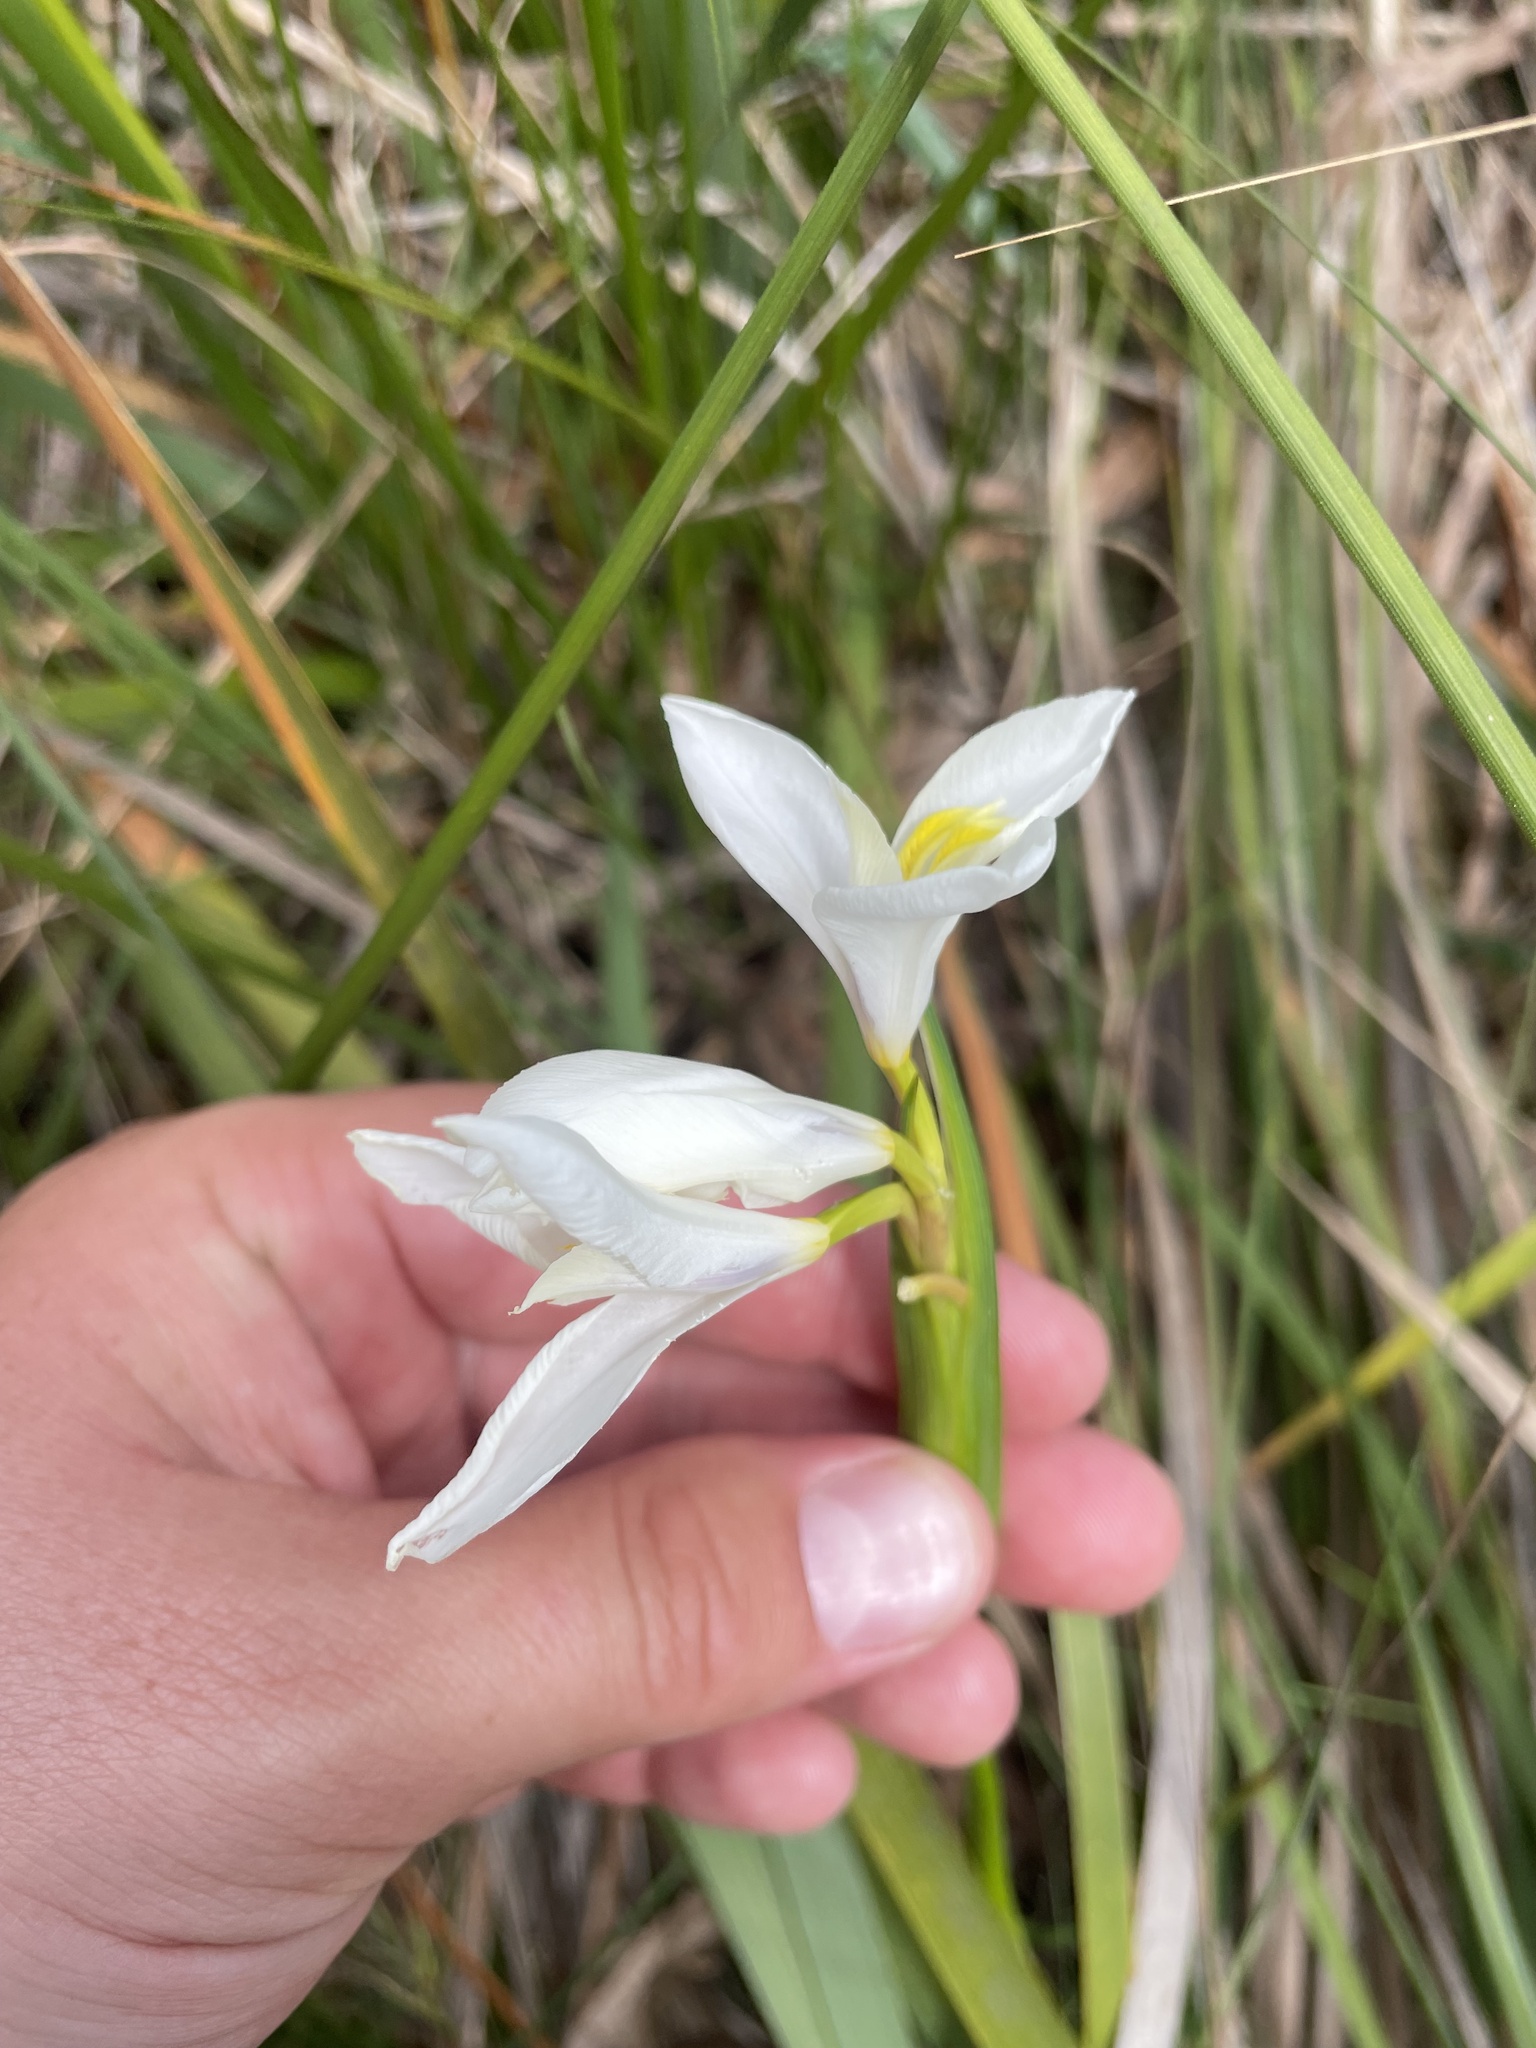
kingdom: Plantae
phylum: Tracheophyta
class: Liliopsida
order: Asparagales
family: Iridaceae
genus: Diplarrena
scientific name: Diplarrena moraea
